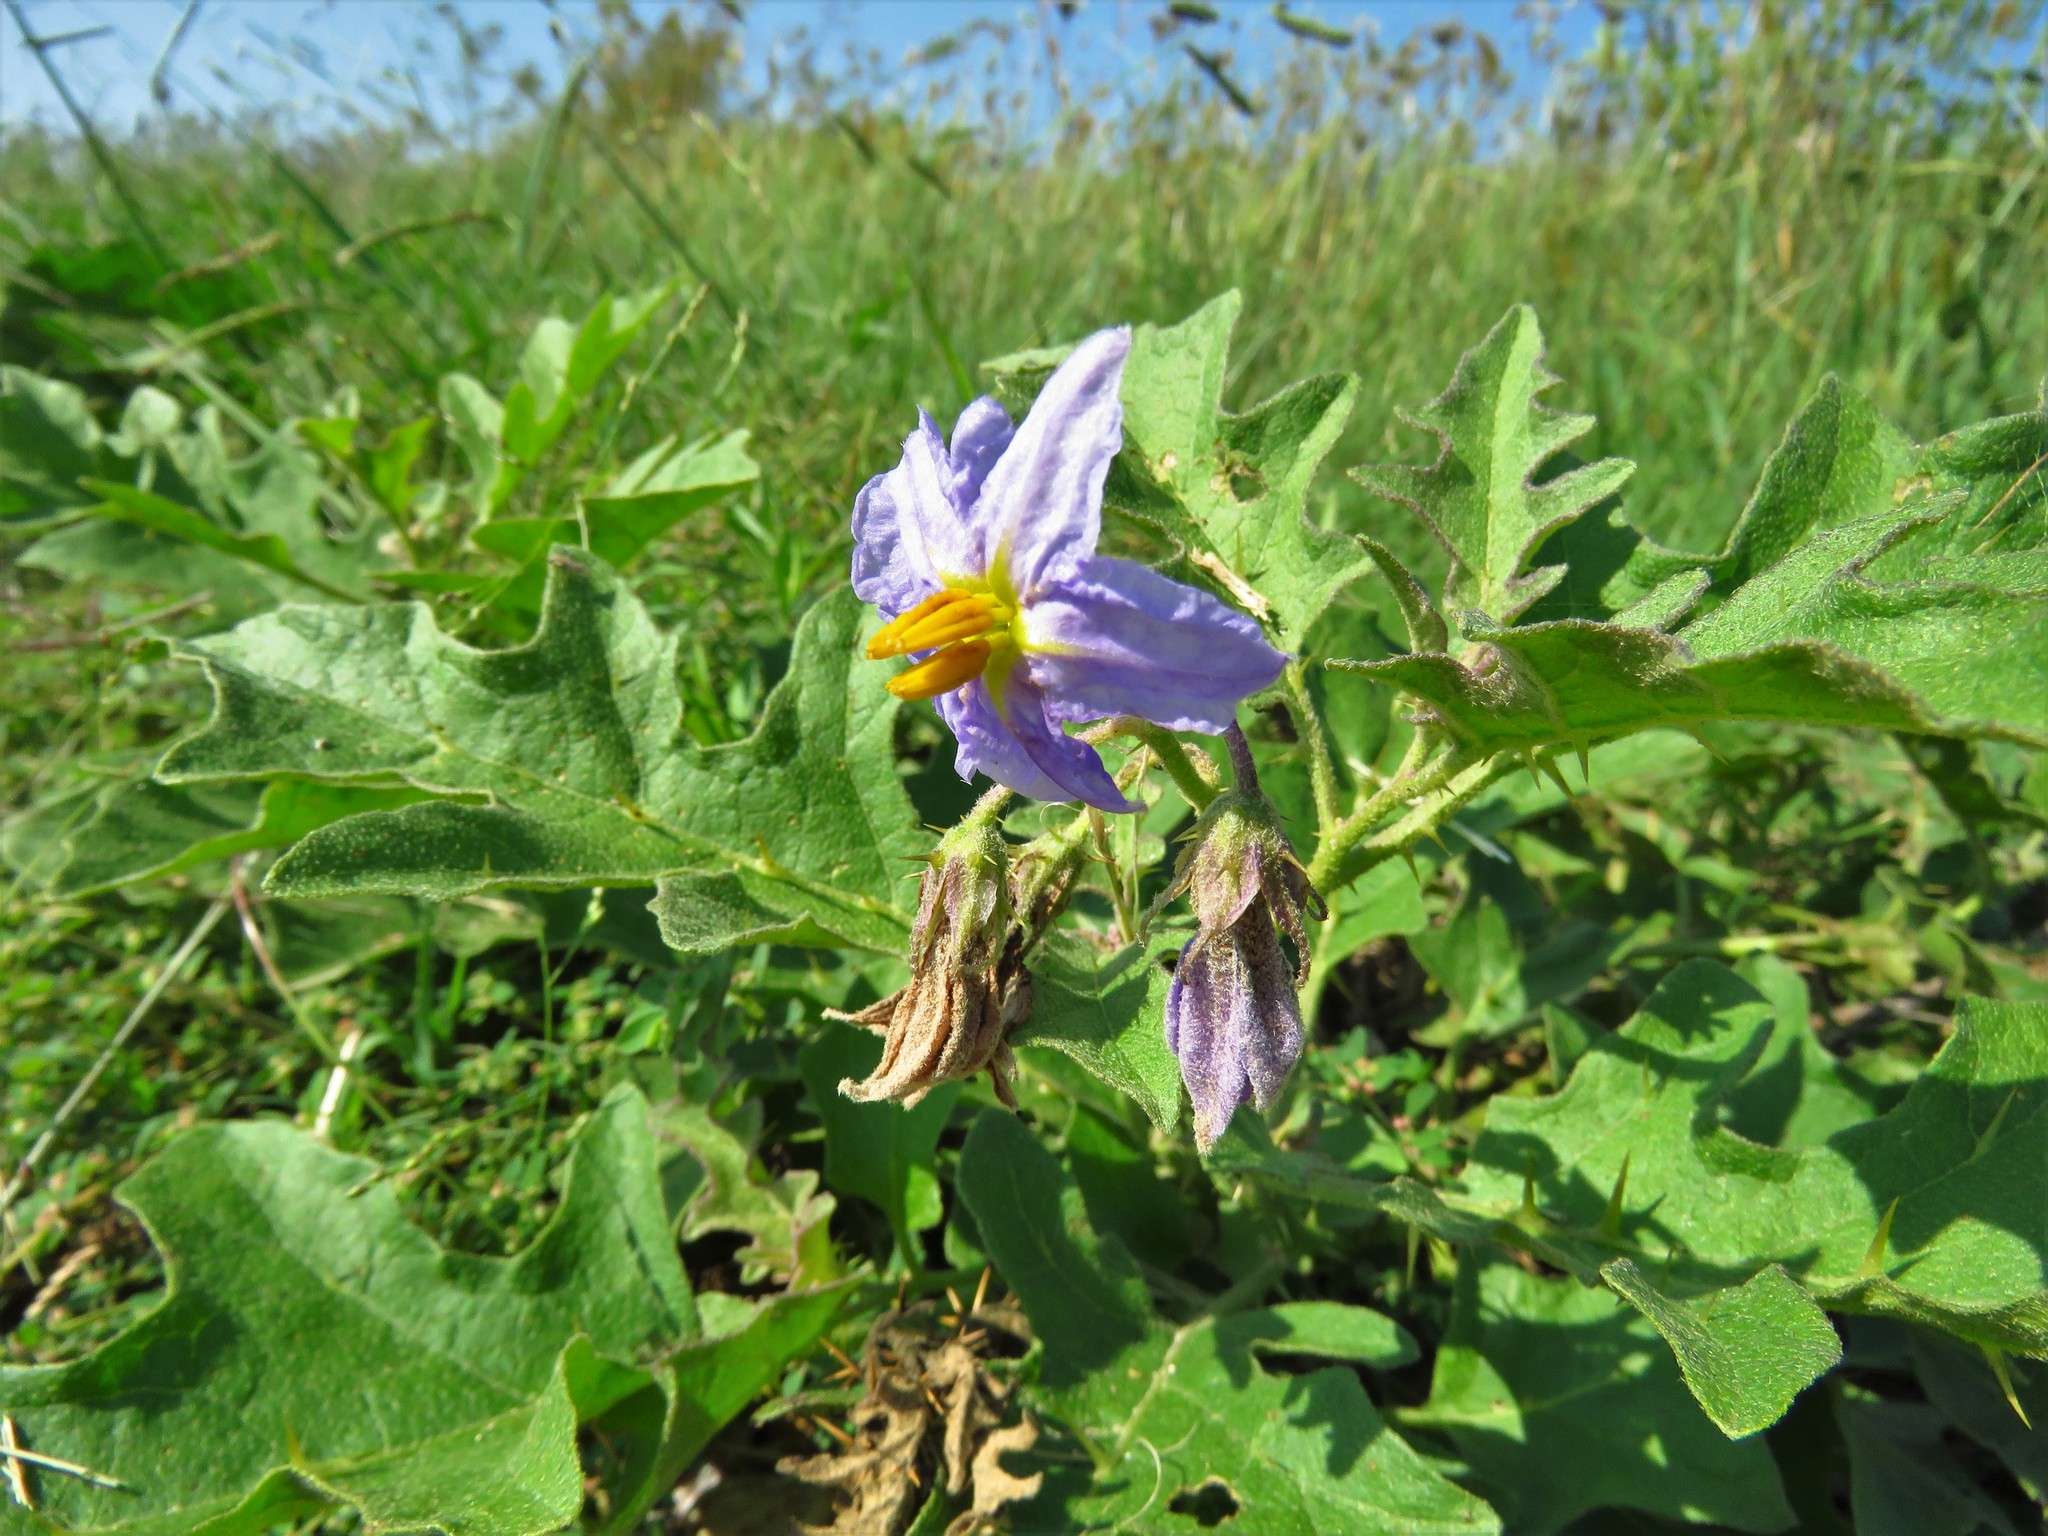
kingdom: Plantae
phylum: Tracheophyta
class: Magnoliopsida
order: Solanales
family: Solanaceae
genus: Solanum
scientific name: Solanum dimidiatum
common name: Carolina horse-nettle
